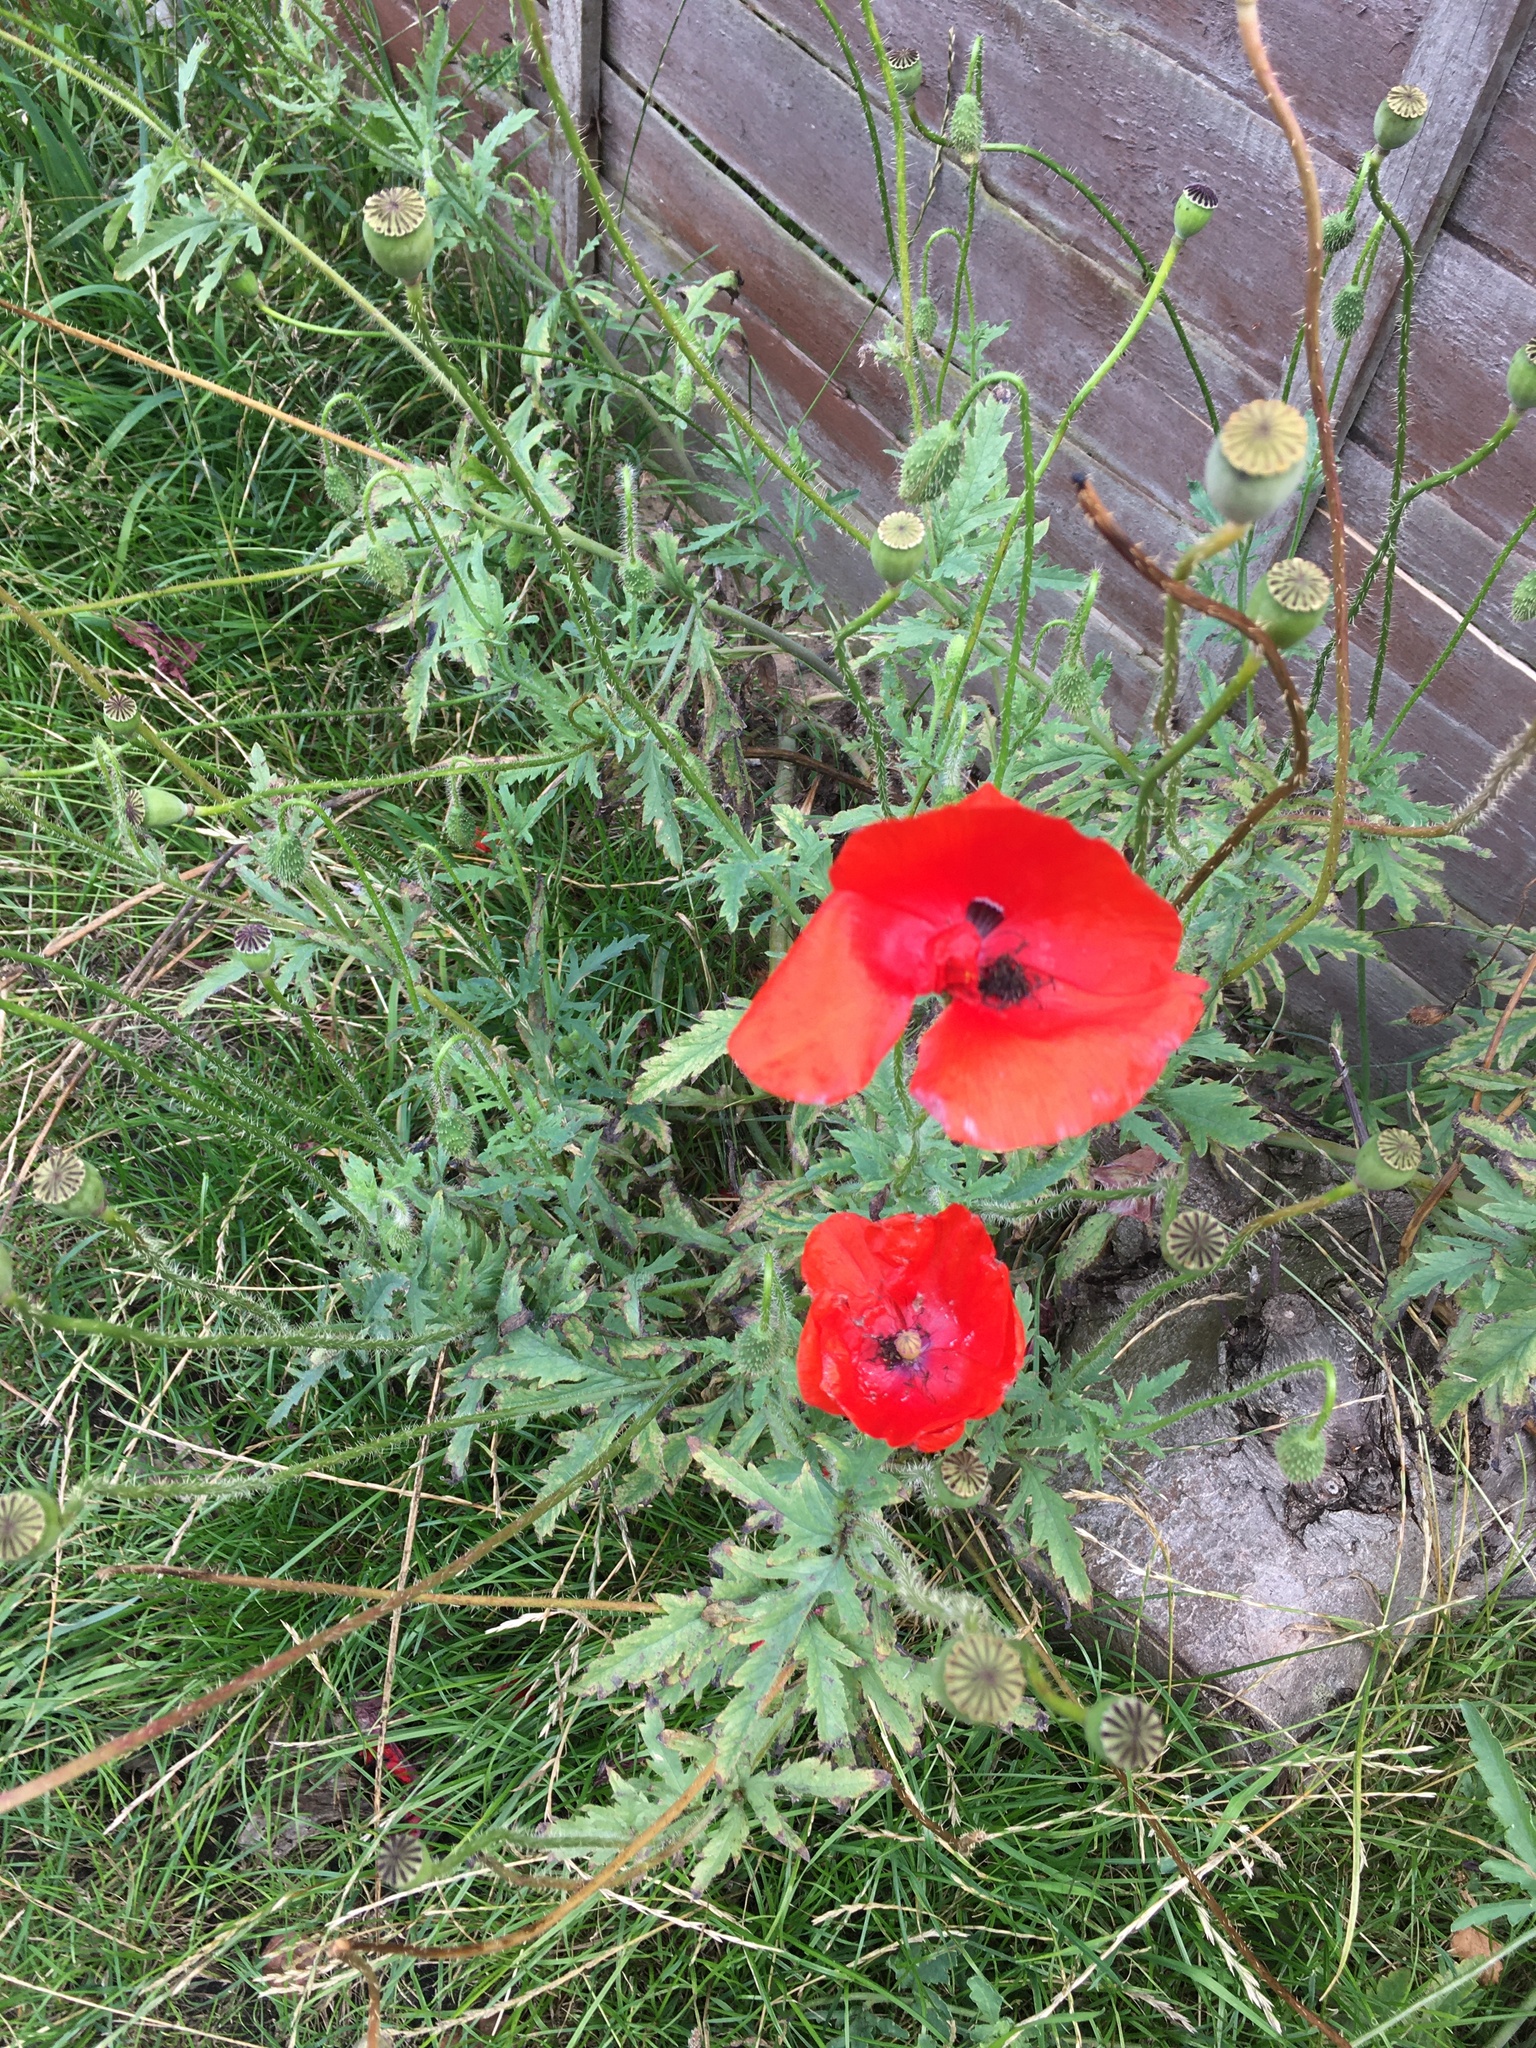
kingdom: Plantae
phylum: Tracheophyta
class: Magnoliopsida
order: Ranunculales
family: Papaveraceae
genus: Papaver
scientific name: Papaver rhoeas
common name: Corn poppy
